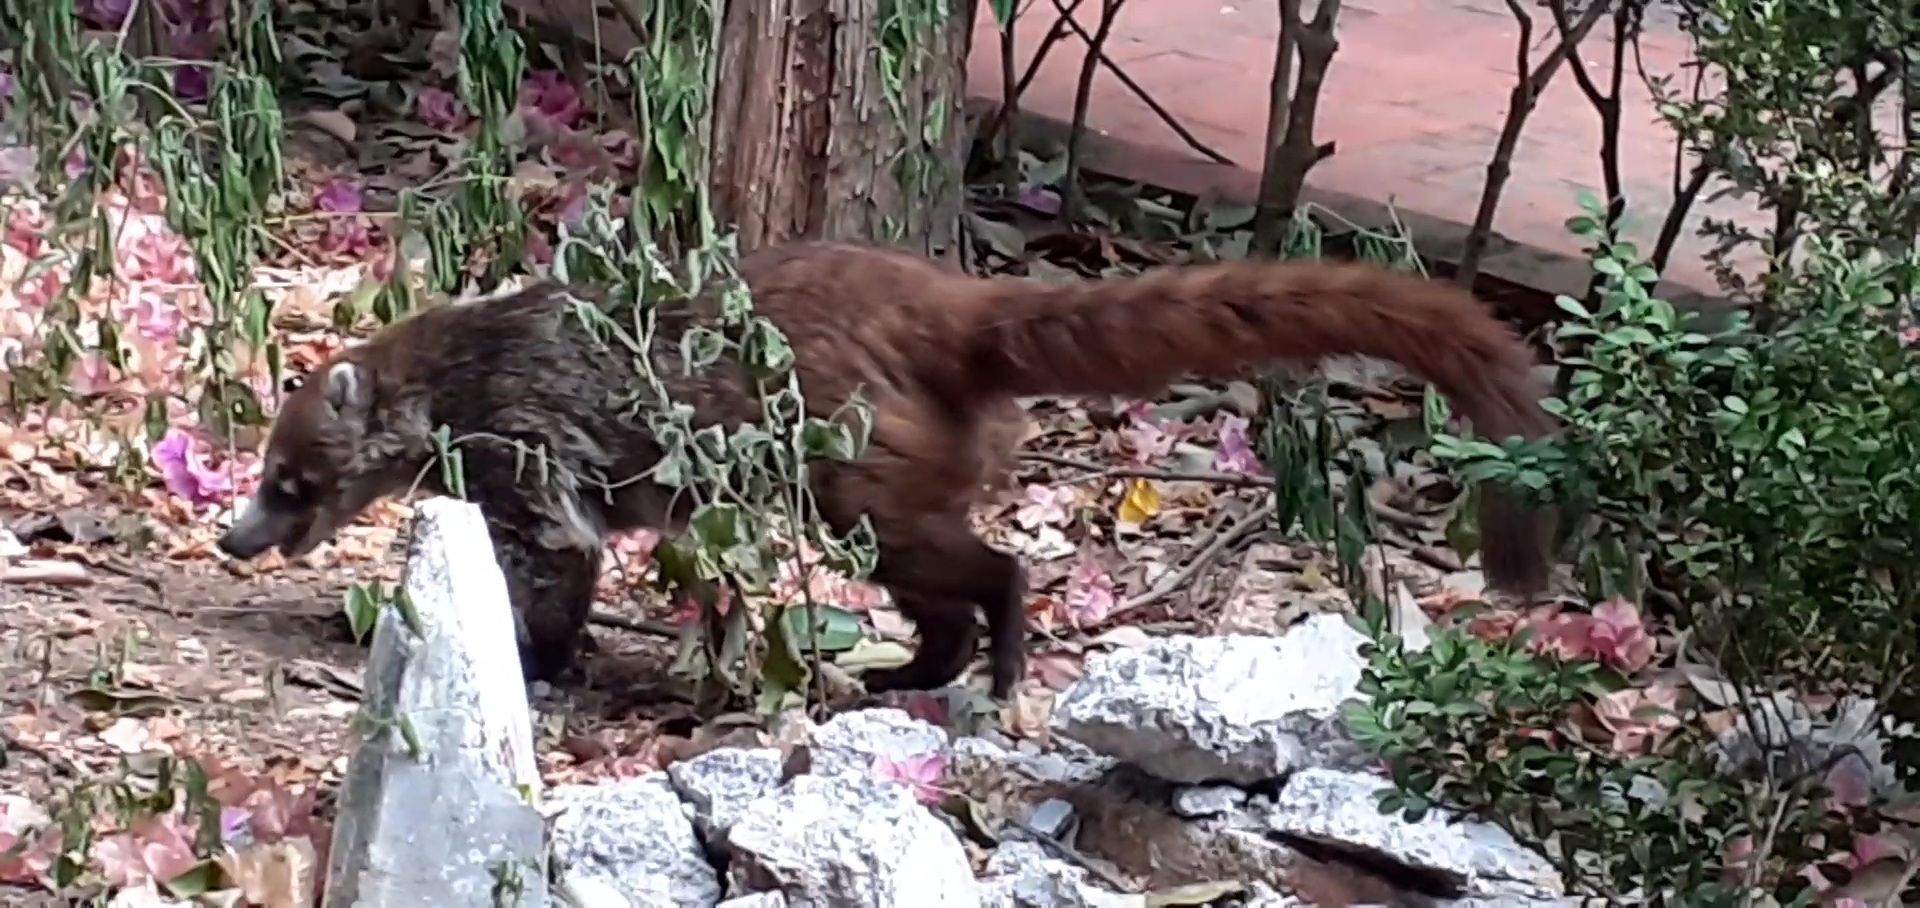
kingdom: Animalia
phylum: Chordata
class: Mammalia
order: Carnivora
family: Procyonidae
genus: Nasua
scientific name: Nasua narica
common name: White-nosed coati
